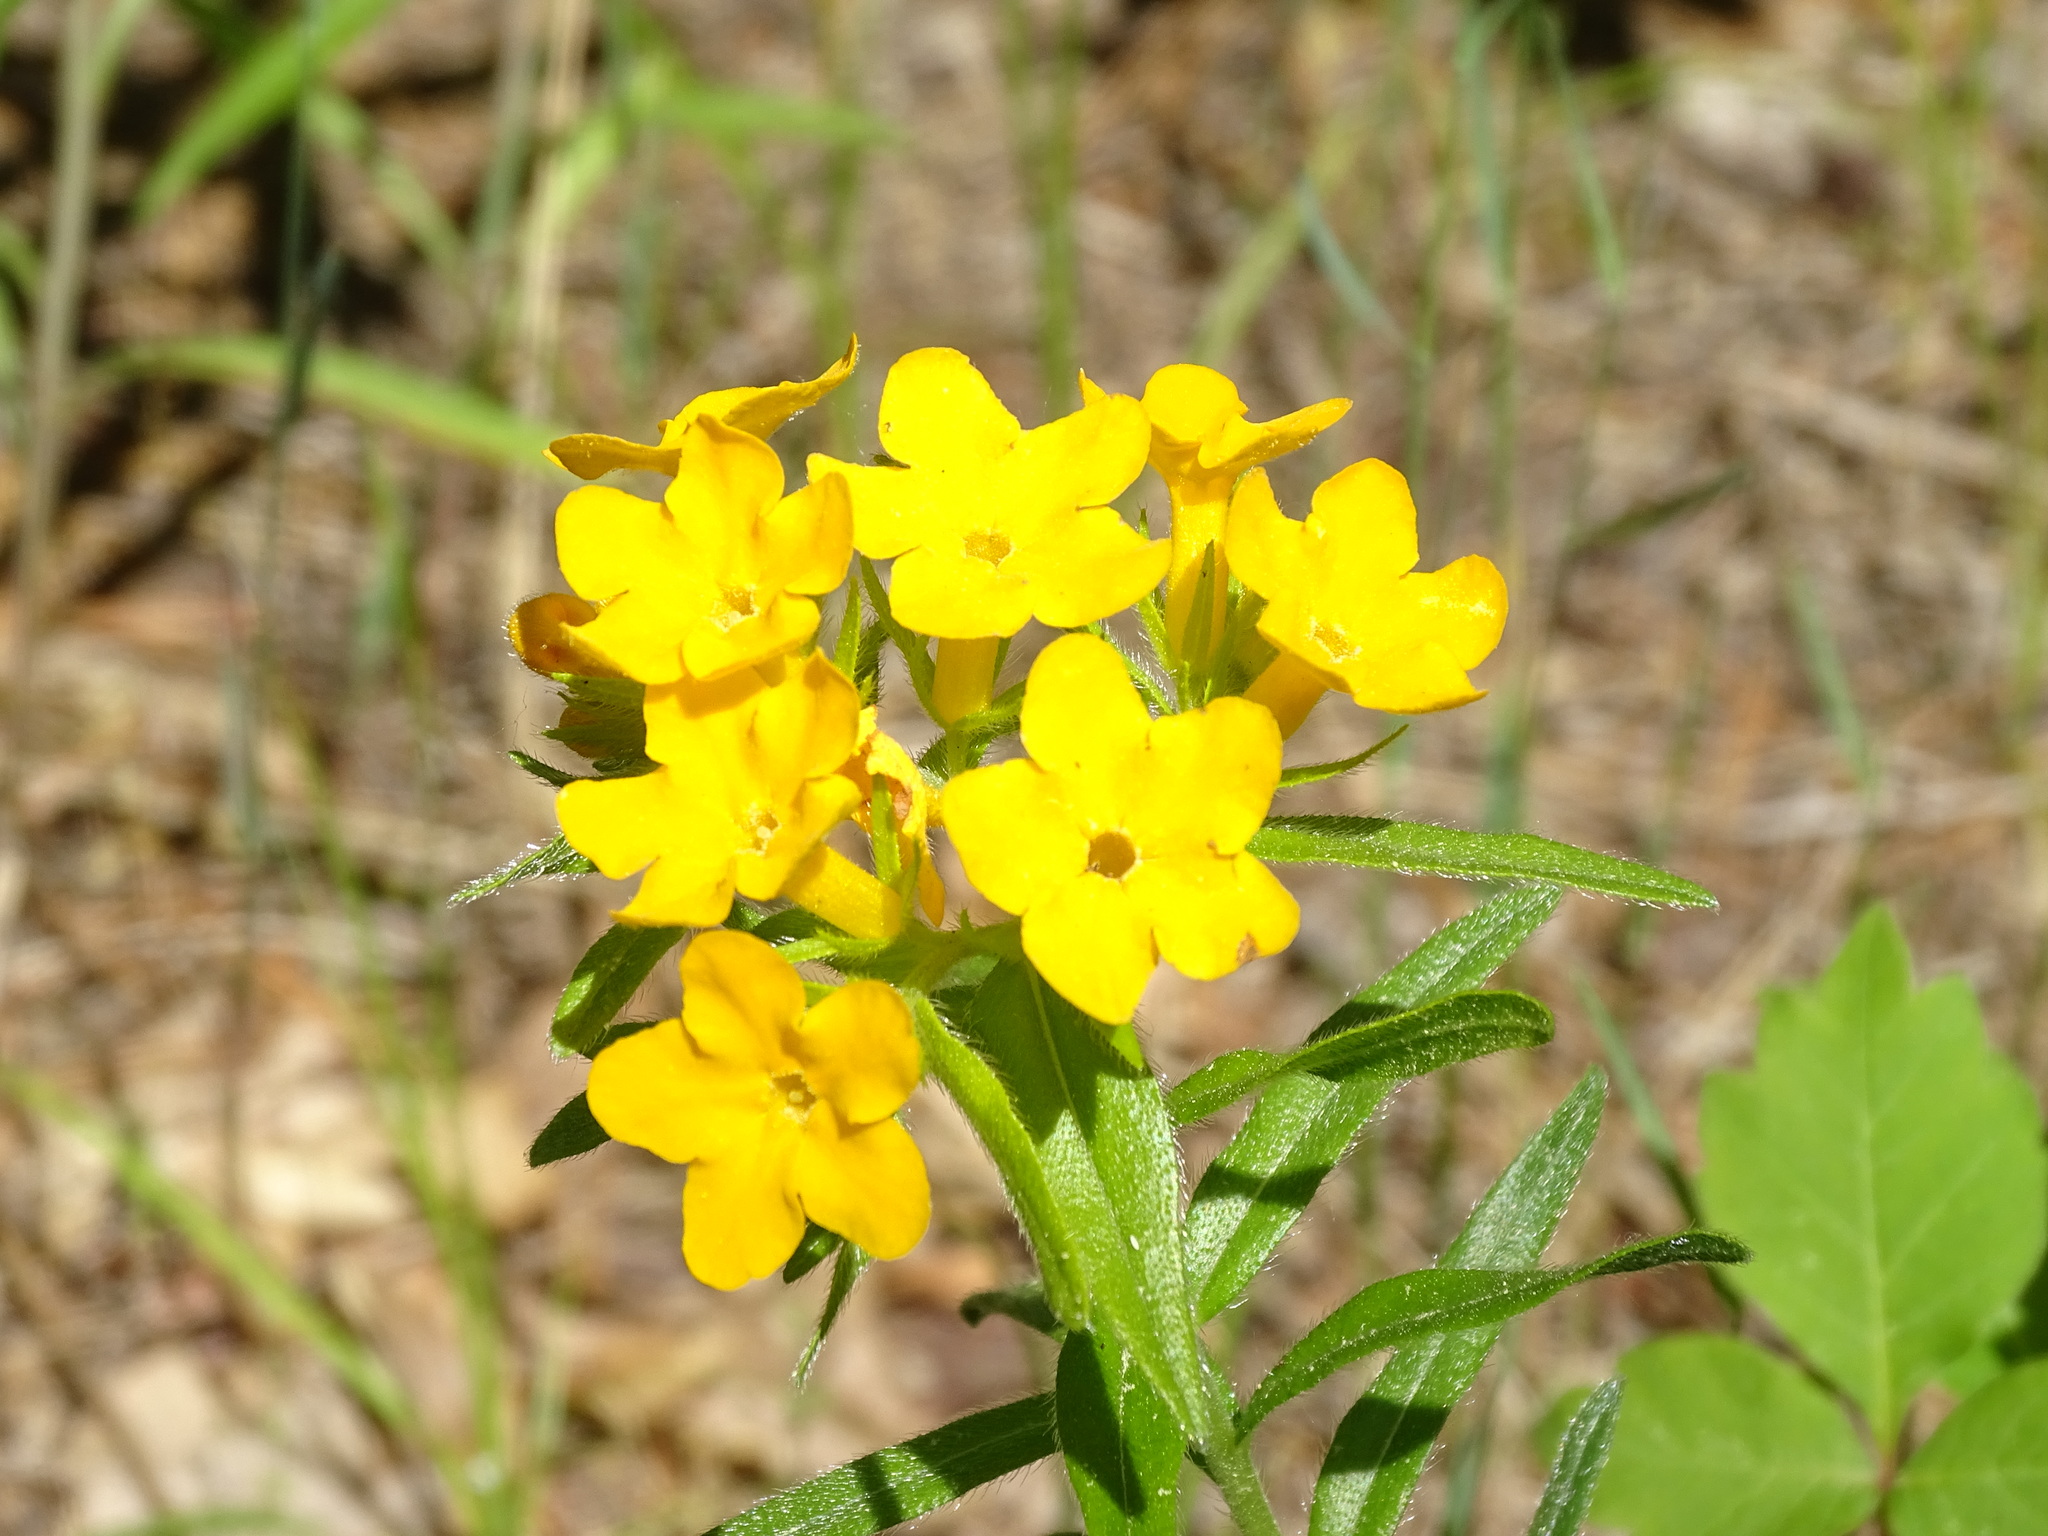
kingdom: Plantae
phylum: Tracheophyta
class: Magnoliopsida
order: Boraginales
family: Boraginaceae
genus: Lithospermum
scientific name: Lithospermum caroliniense
